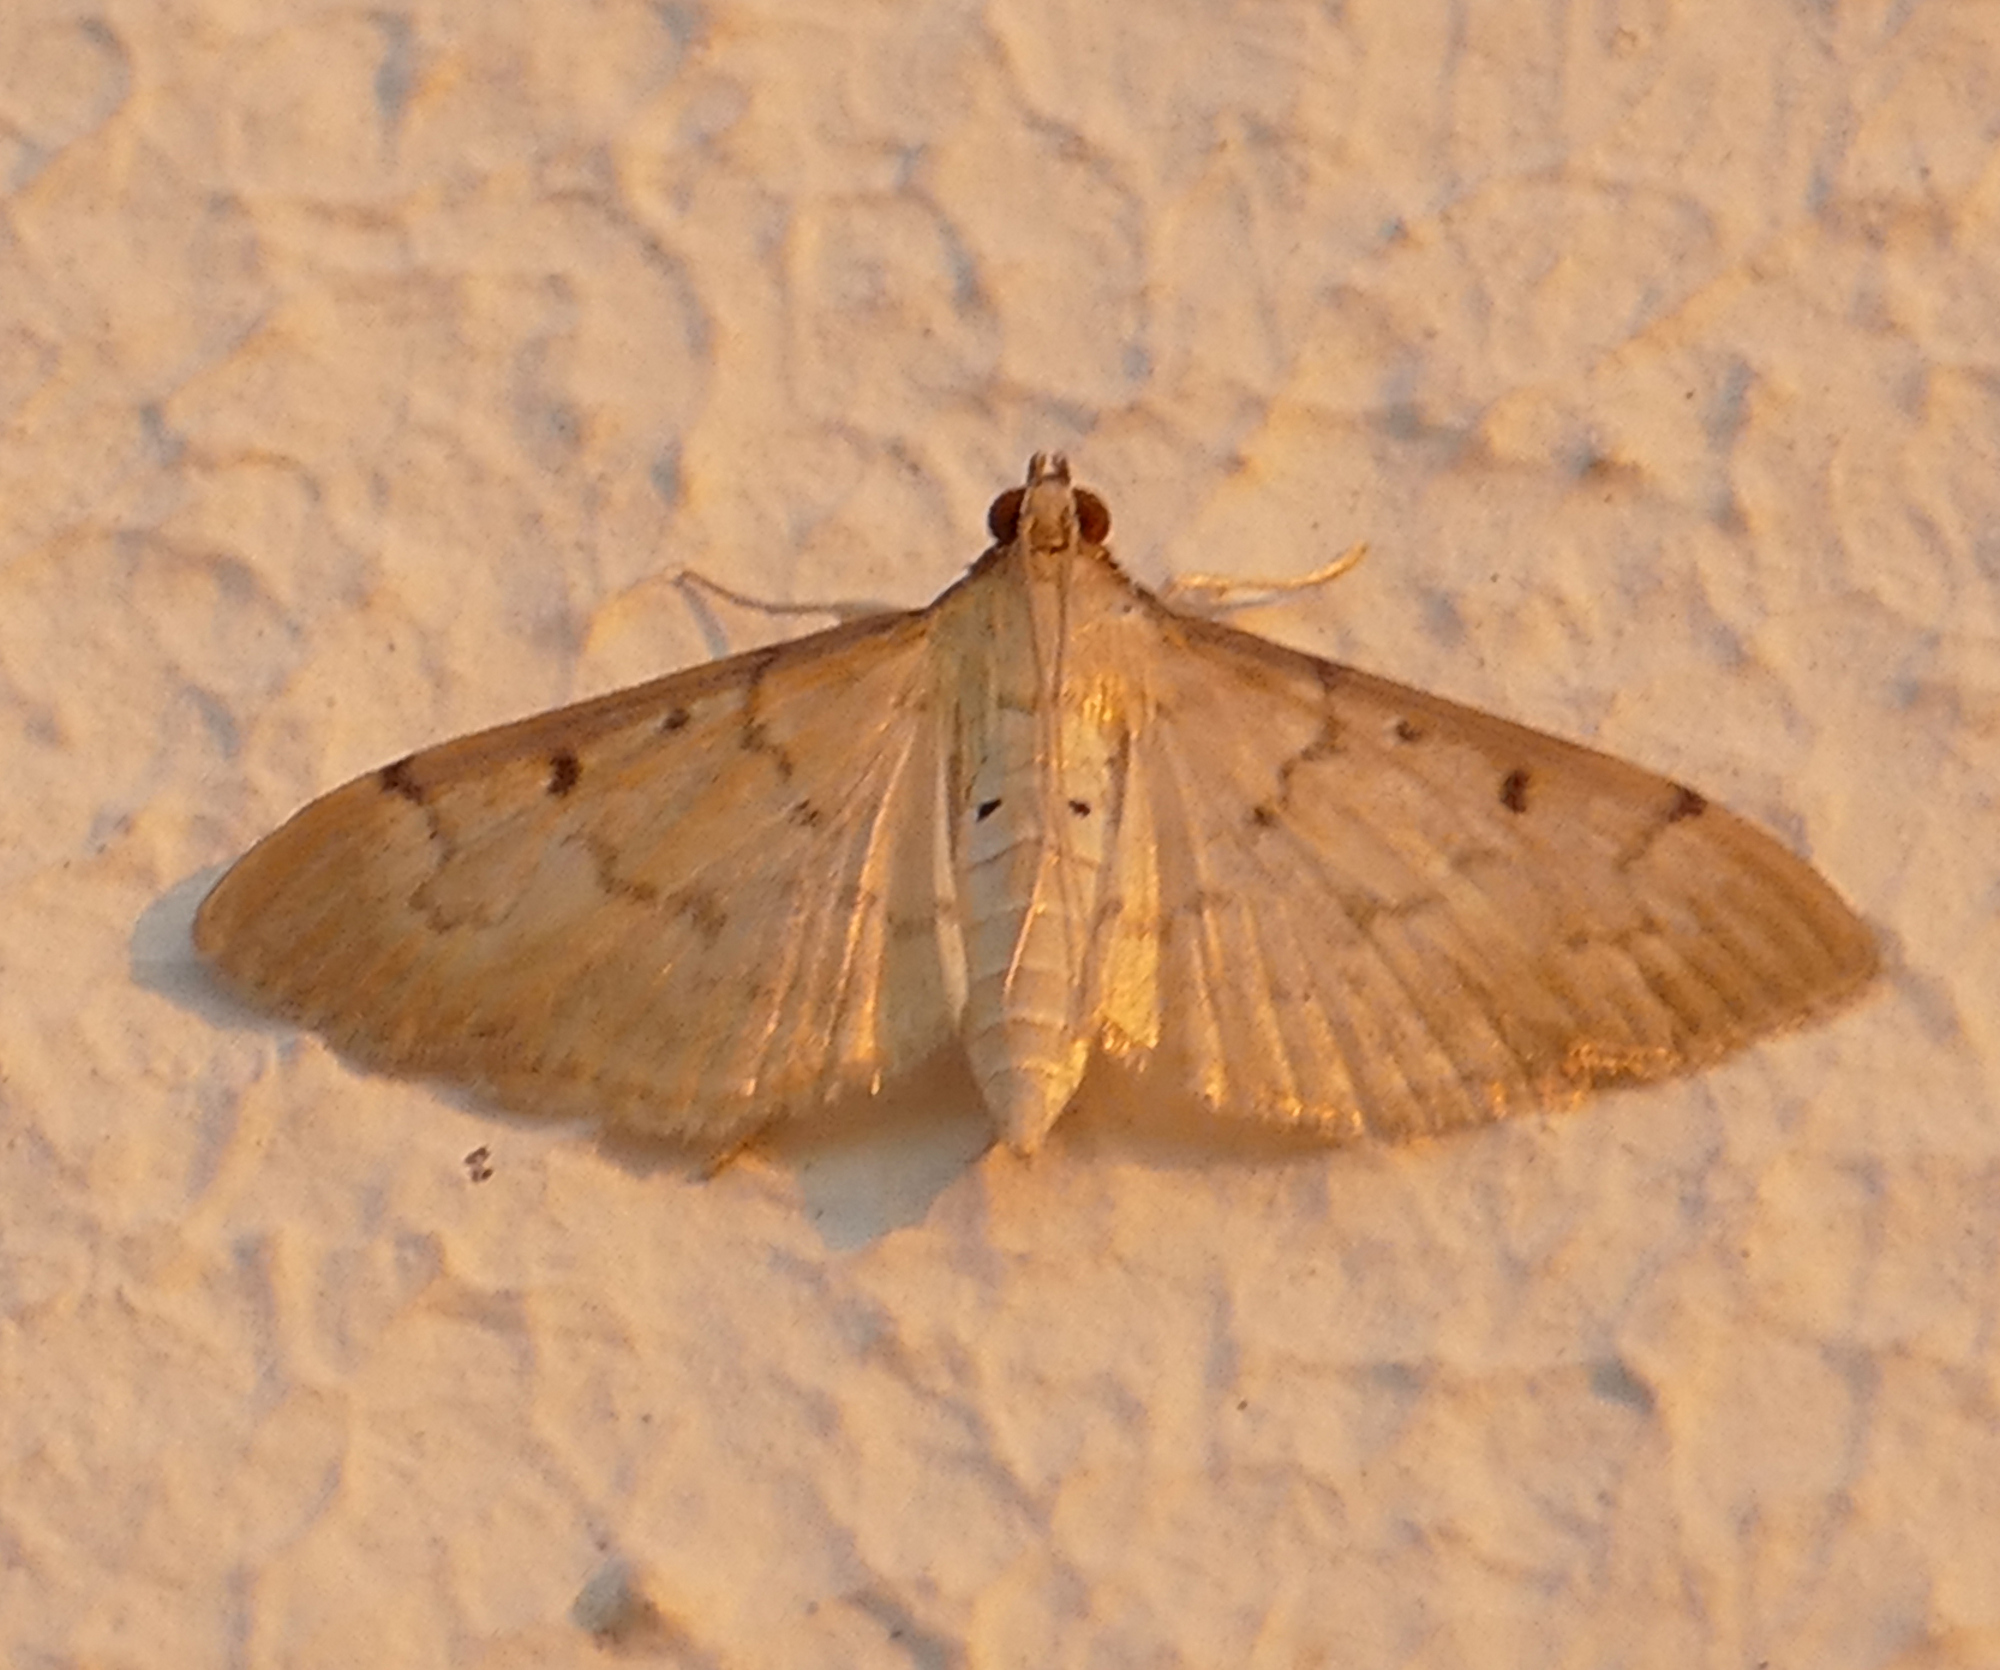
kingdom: Animalia
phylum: Arthropoda
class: Insecta
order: Lepidoptera
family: Crambidae
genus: Herpetogramma
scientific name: Herpetogramma bipunctalis
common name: Southern beet webworm
